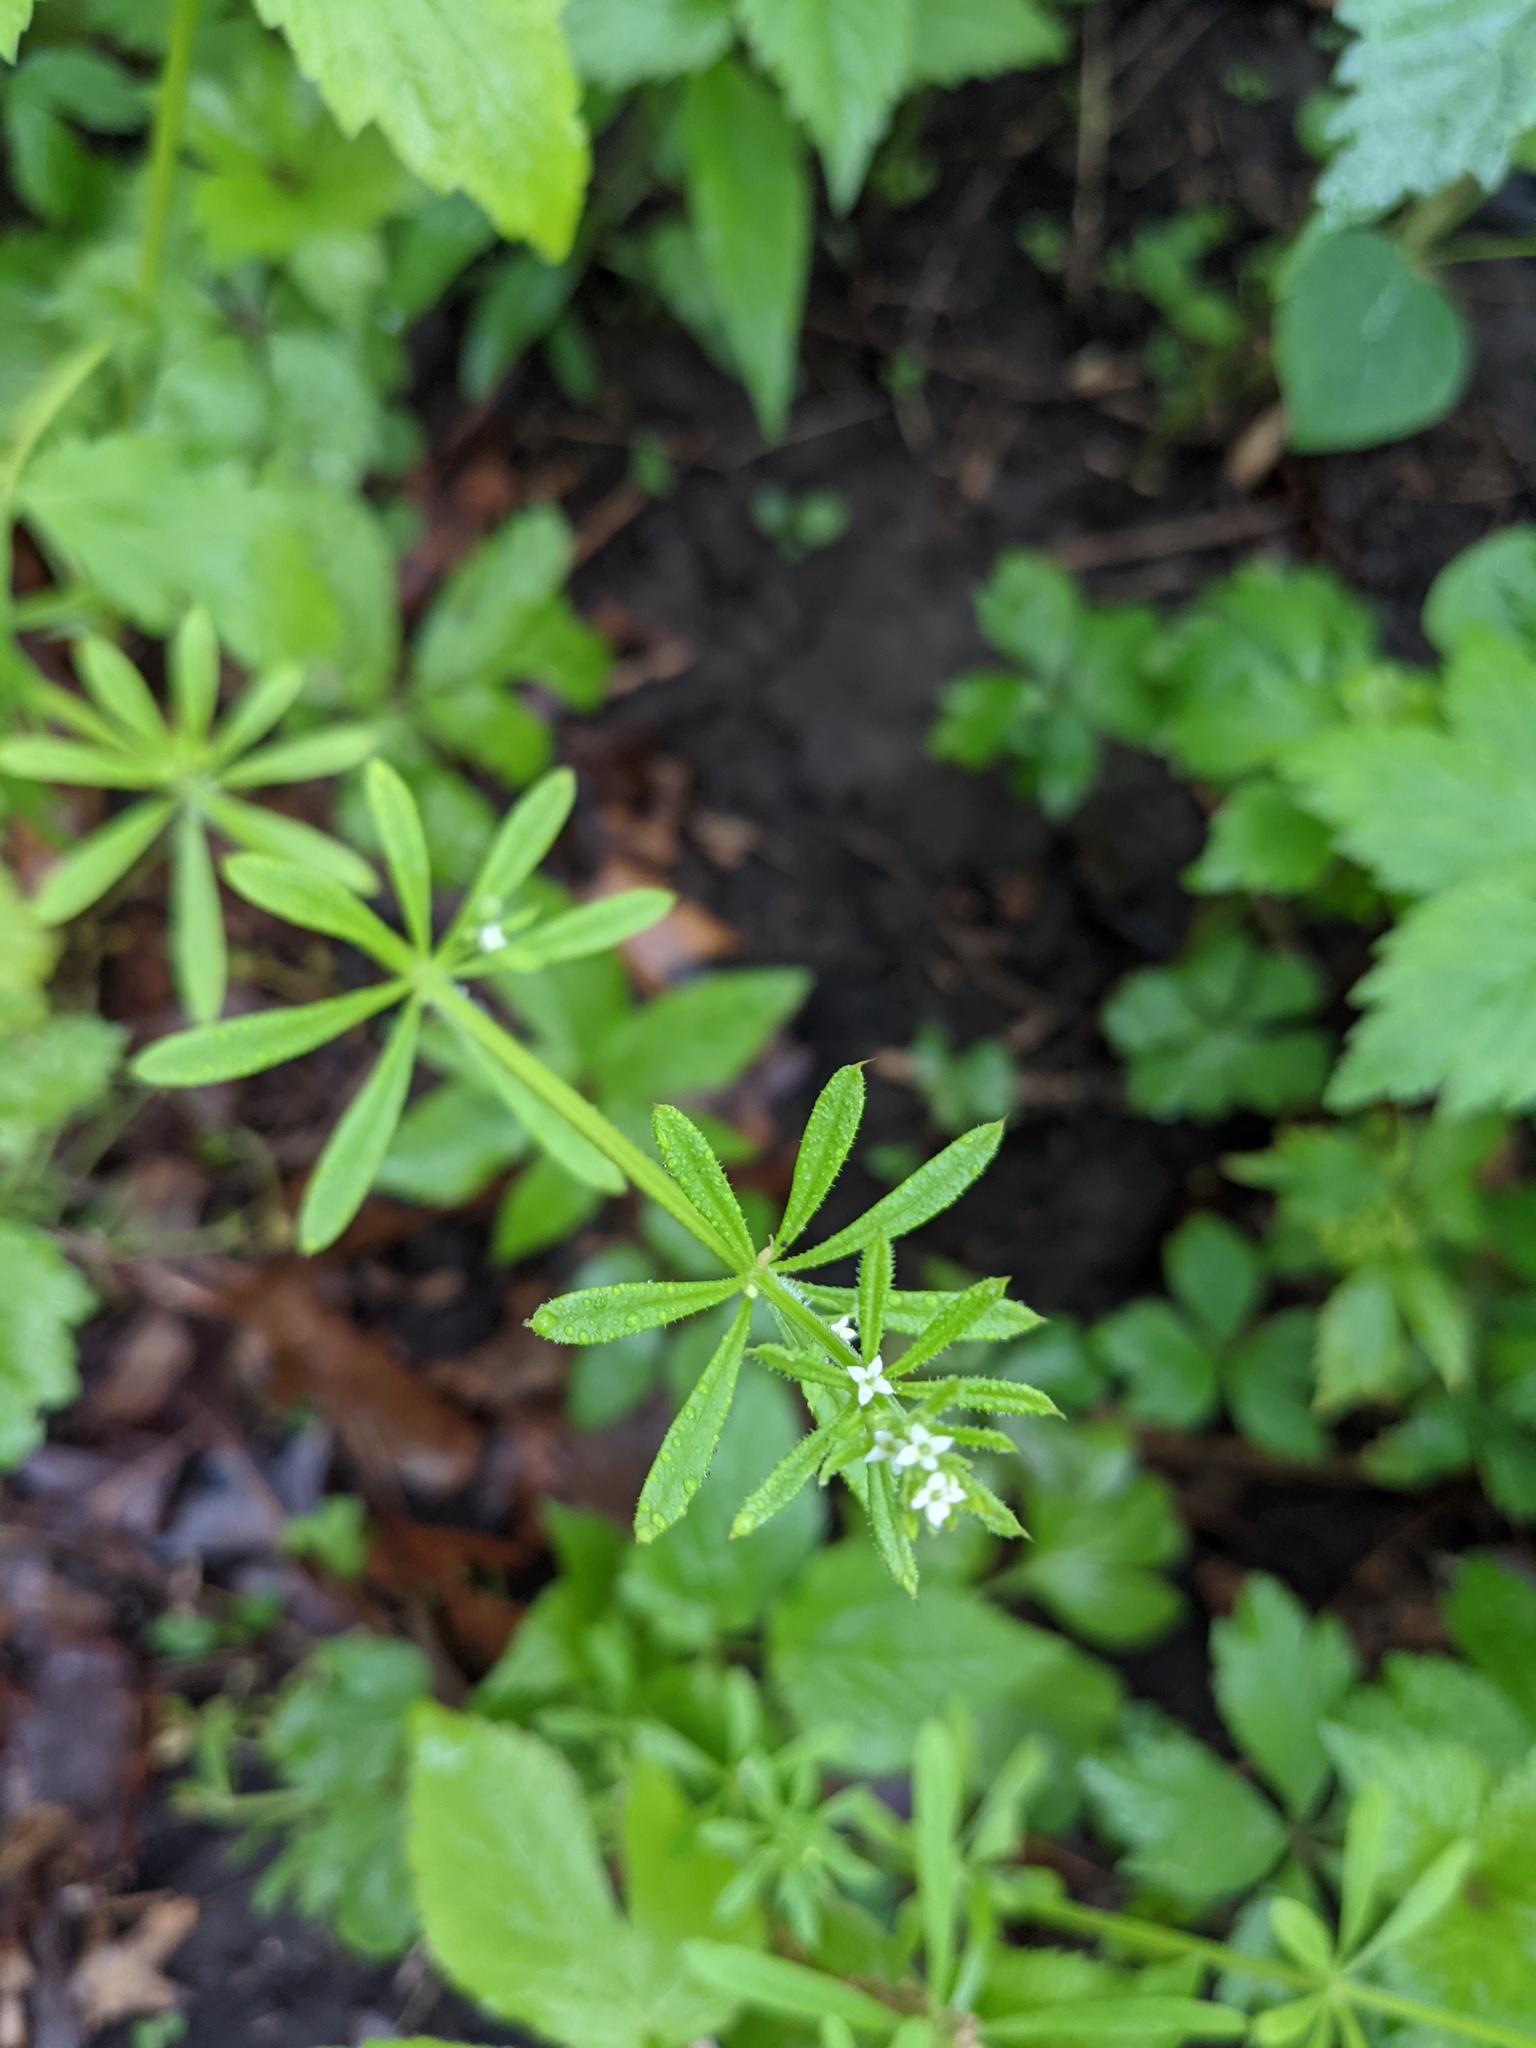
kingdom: Plantae
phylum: Tracheophyta
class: Magnoliopsida
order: Gentianales
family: Rubiaceae
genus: Galium
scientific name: Galium aparine
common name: Cleavers
